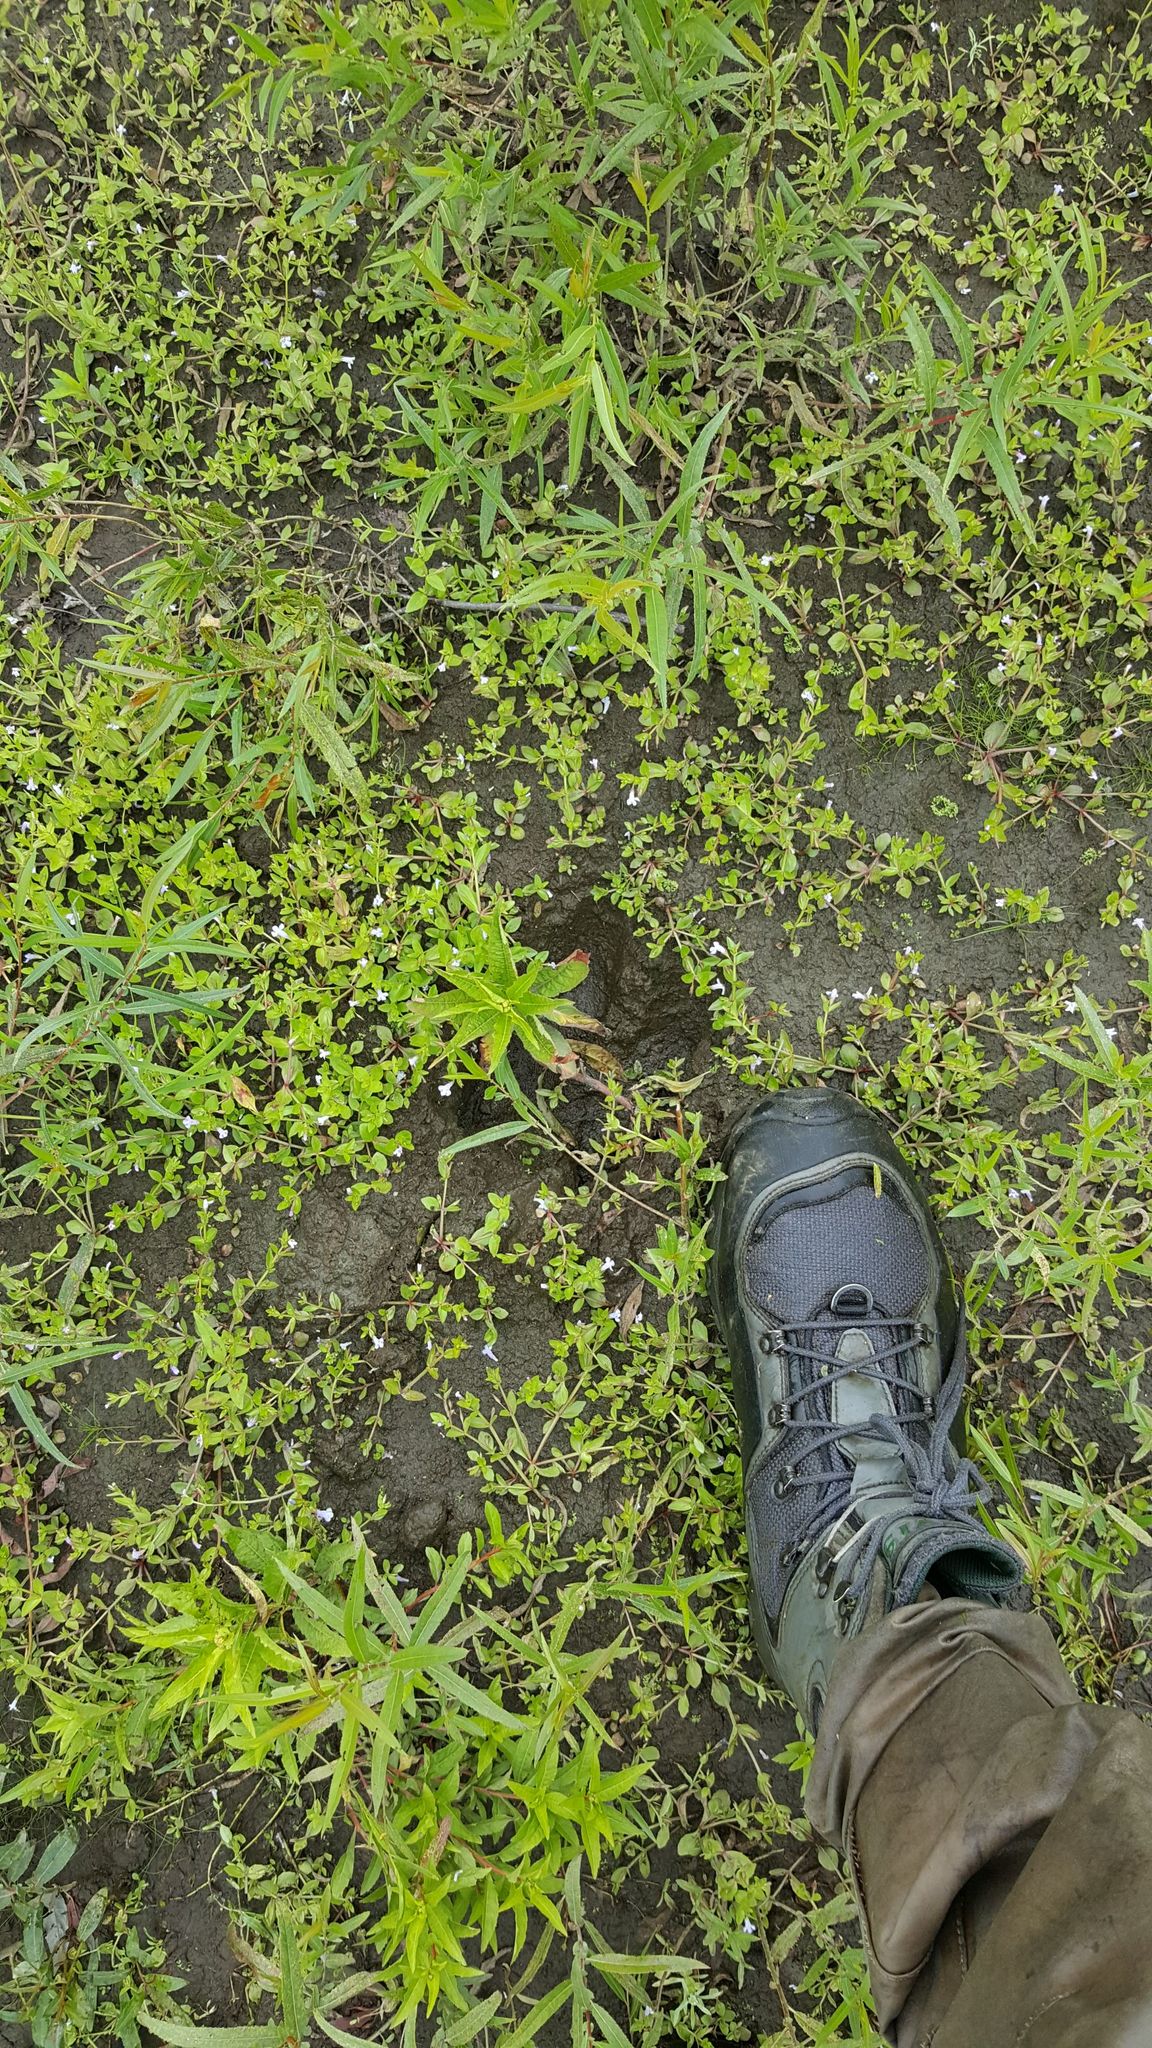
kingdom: Animalia
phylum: Chordata
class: Mammalia
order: Artiodactyla
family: Cervidae
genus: Alces
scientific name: Alces alces
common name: Moose
